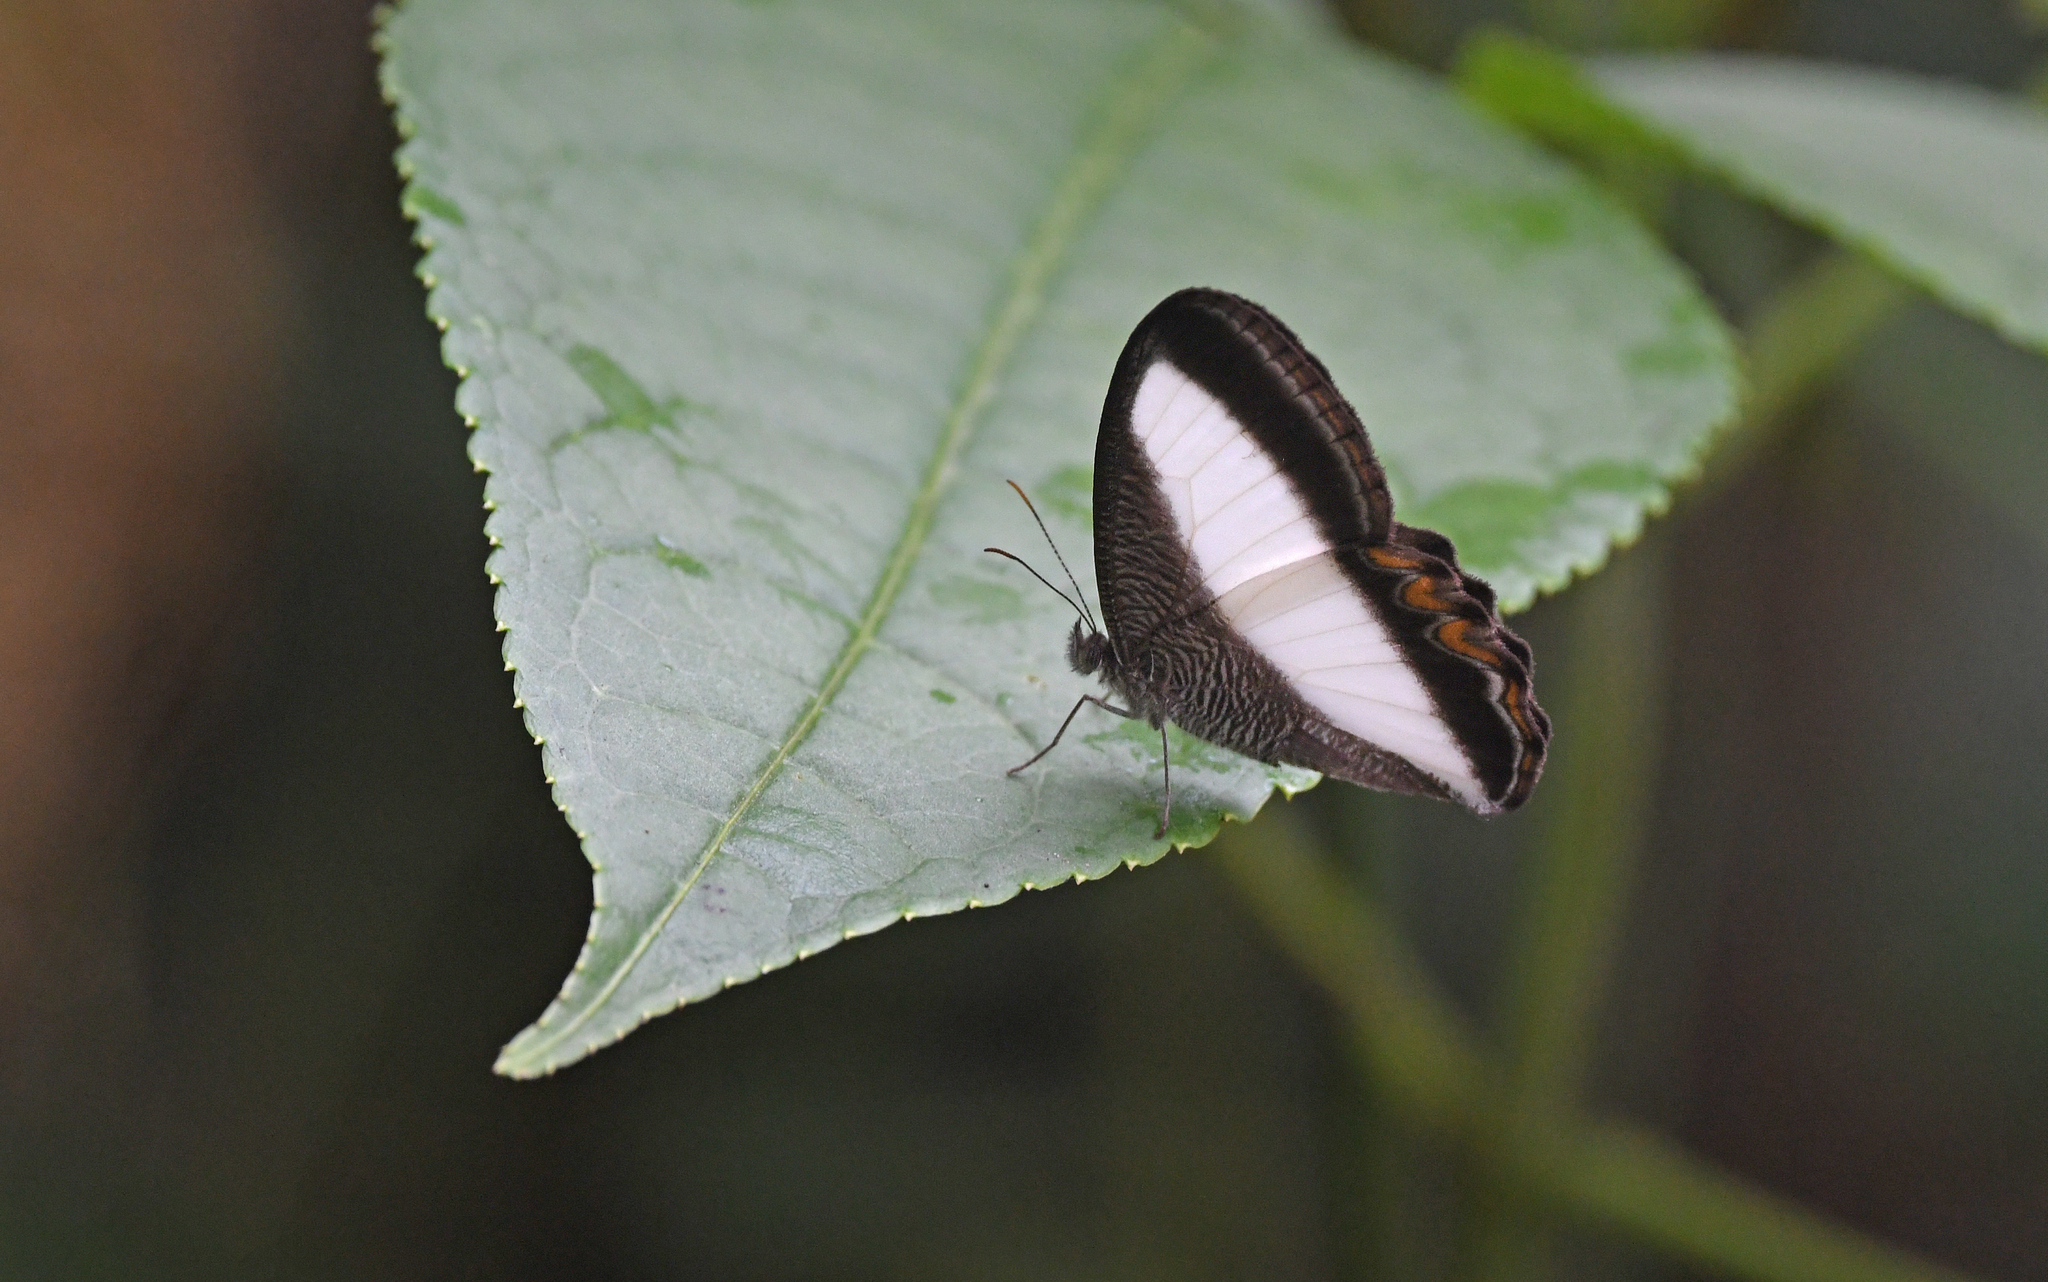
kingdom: Animalia
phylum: Arthropoda
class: Insecta
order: Lepidoptera
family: Nymphalidae
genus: Oressinoma
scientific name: Oressinoma typhla
